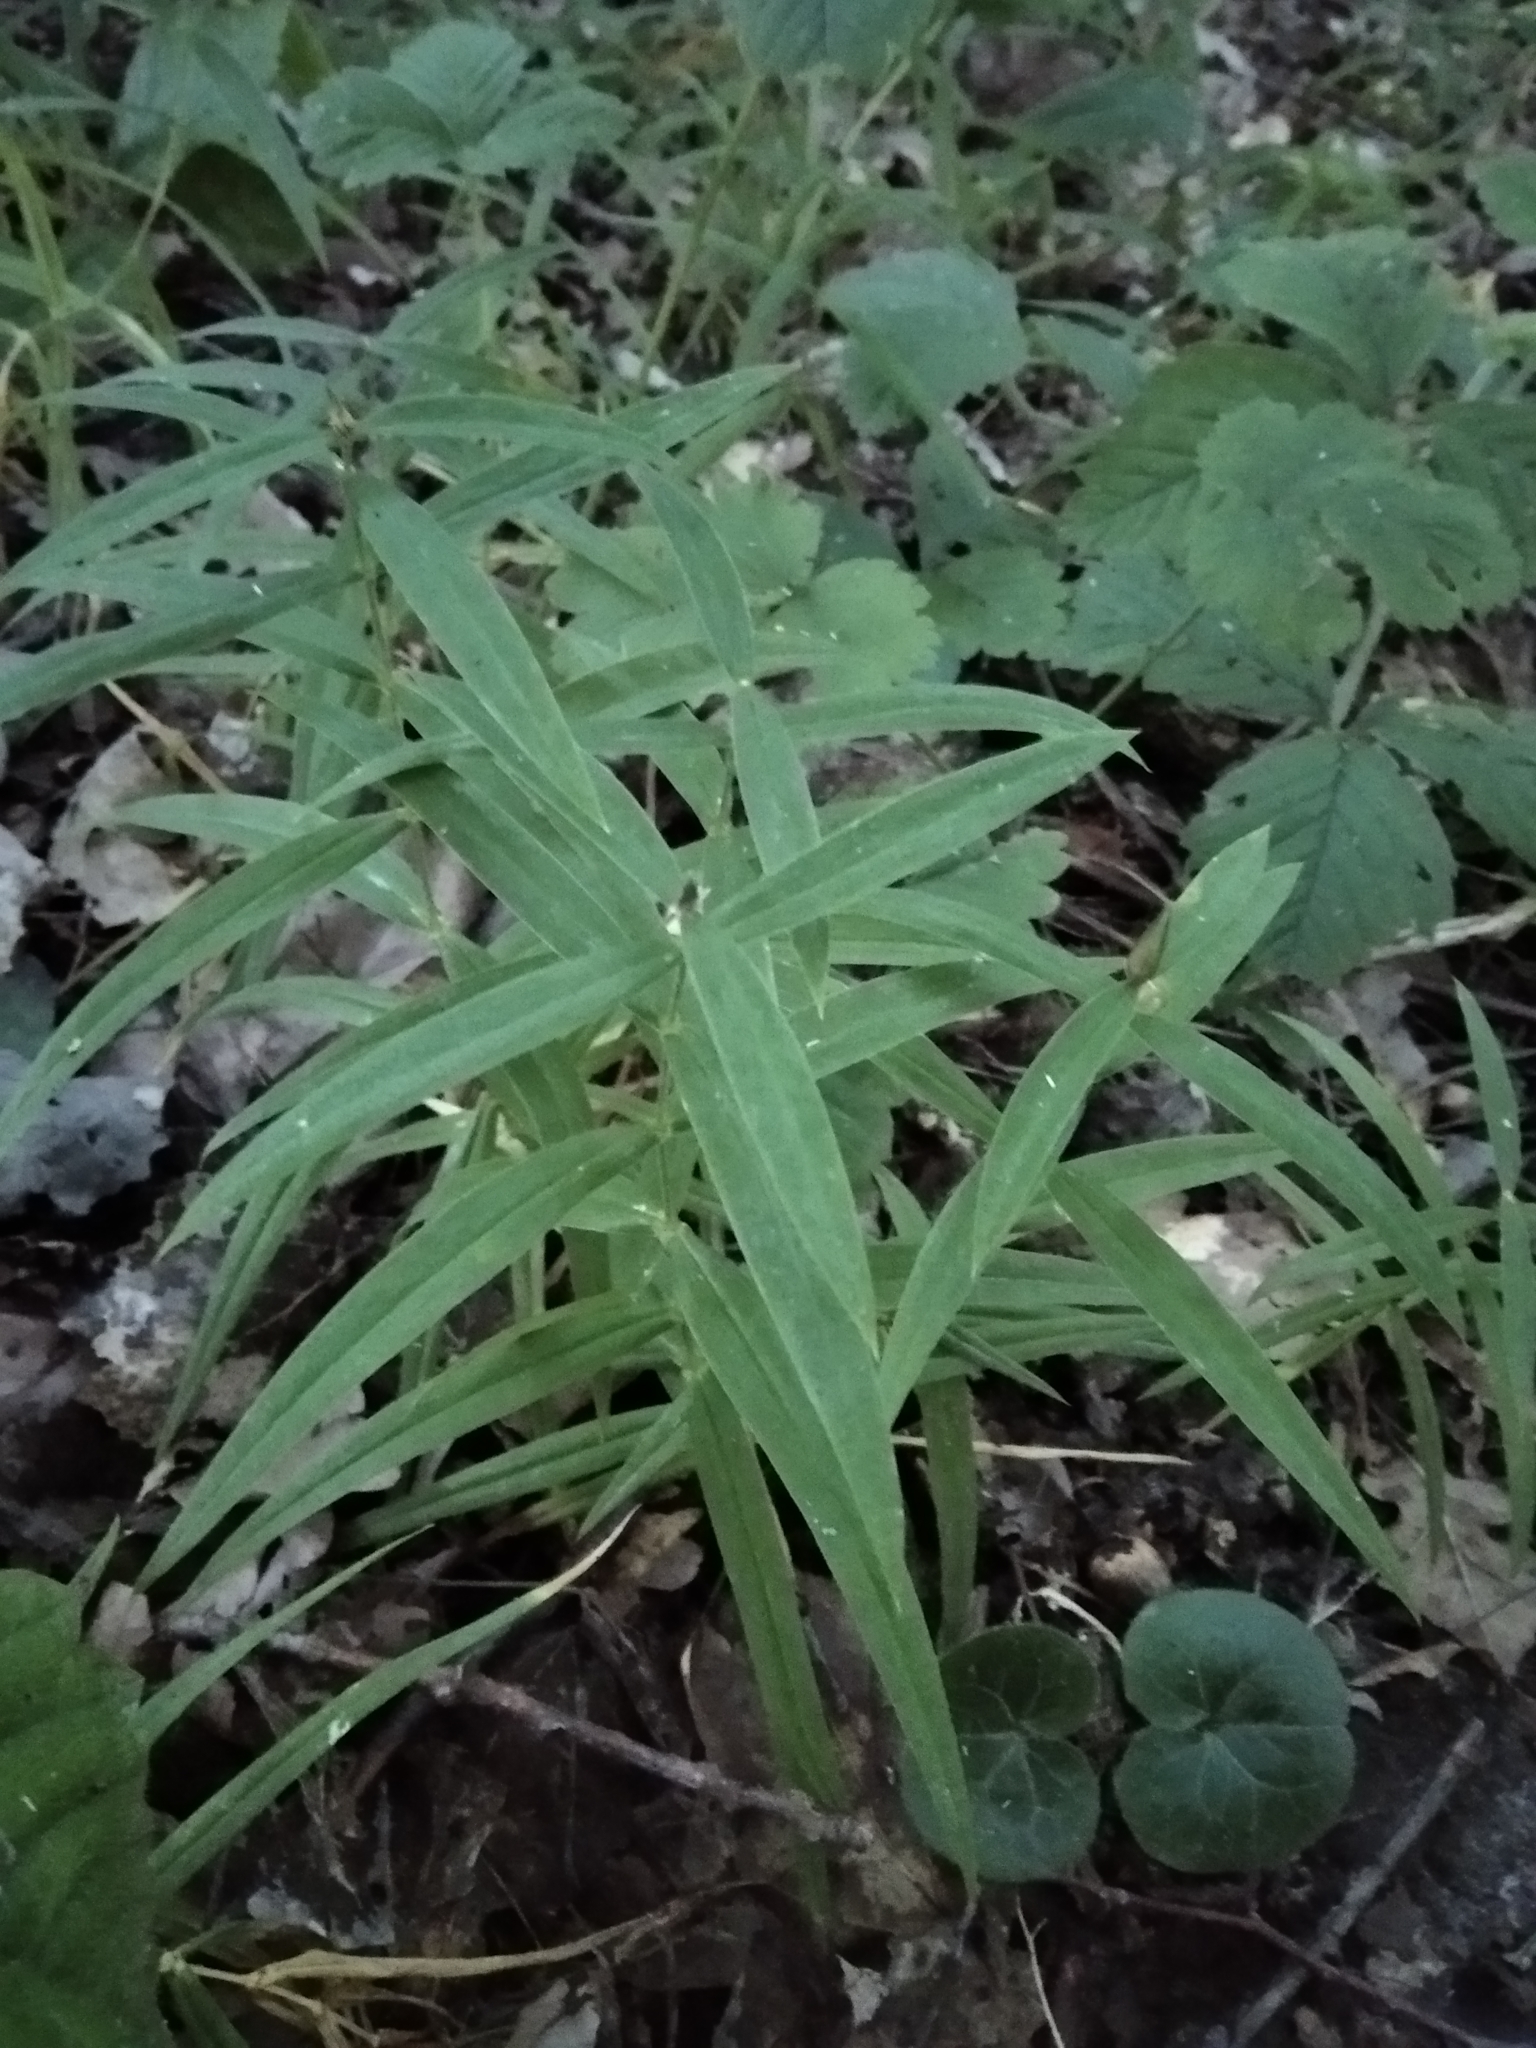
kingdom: Plantae
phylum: Tracheophyta
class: Magnoliopsida
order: Caryophyllales
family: Caryophyllaceae
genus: Rabelera
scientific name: Rabelera holostea
